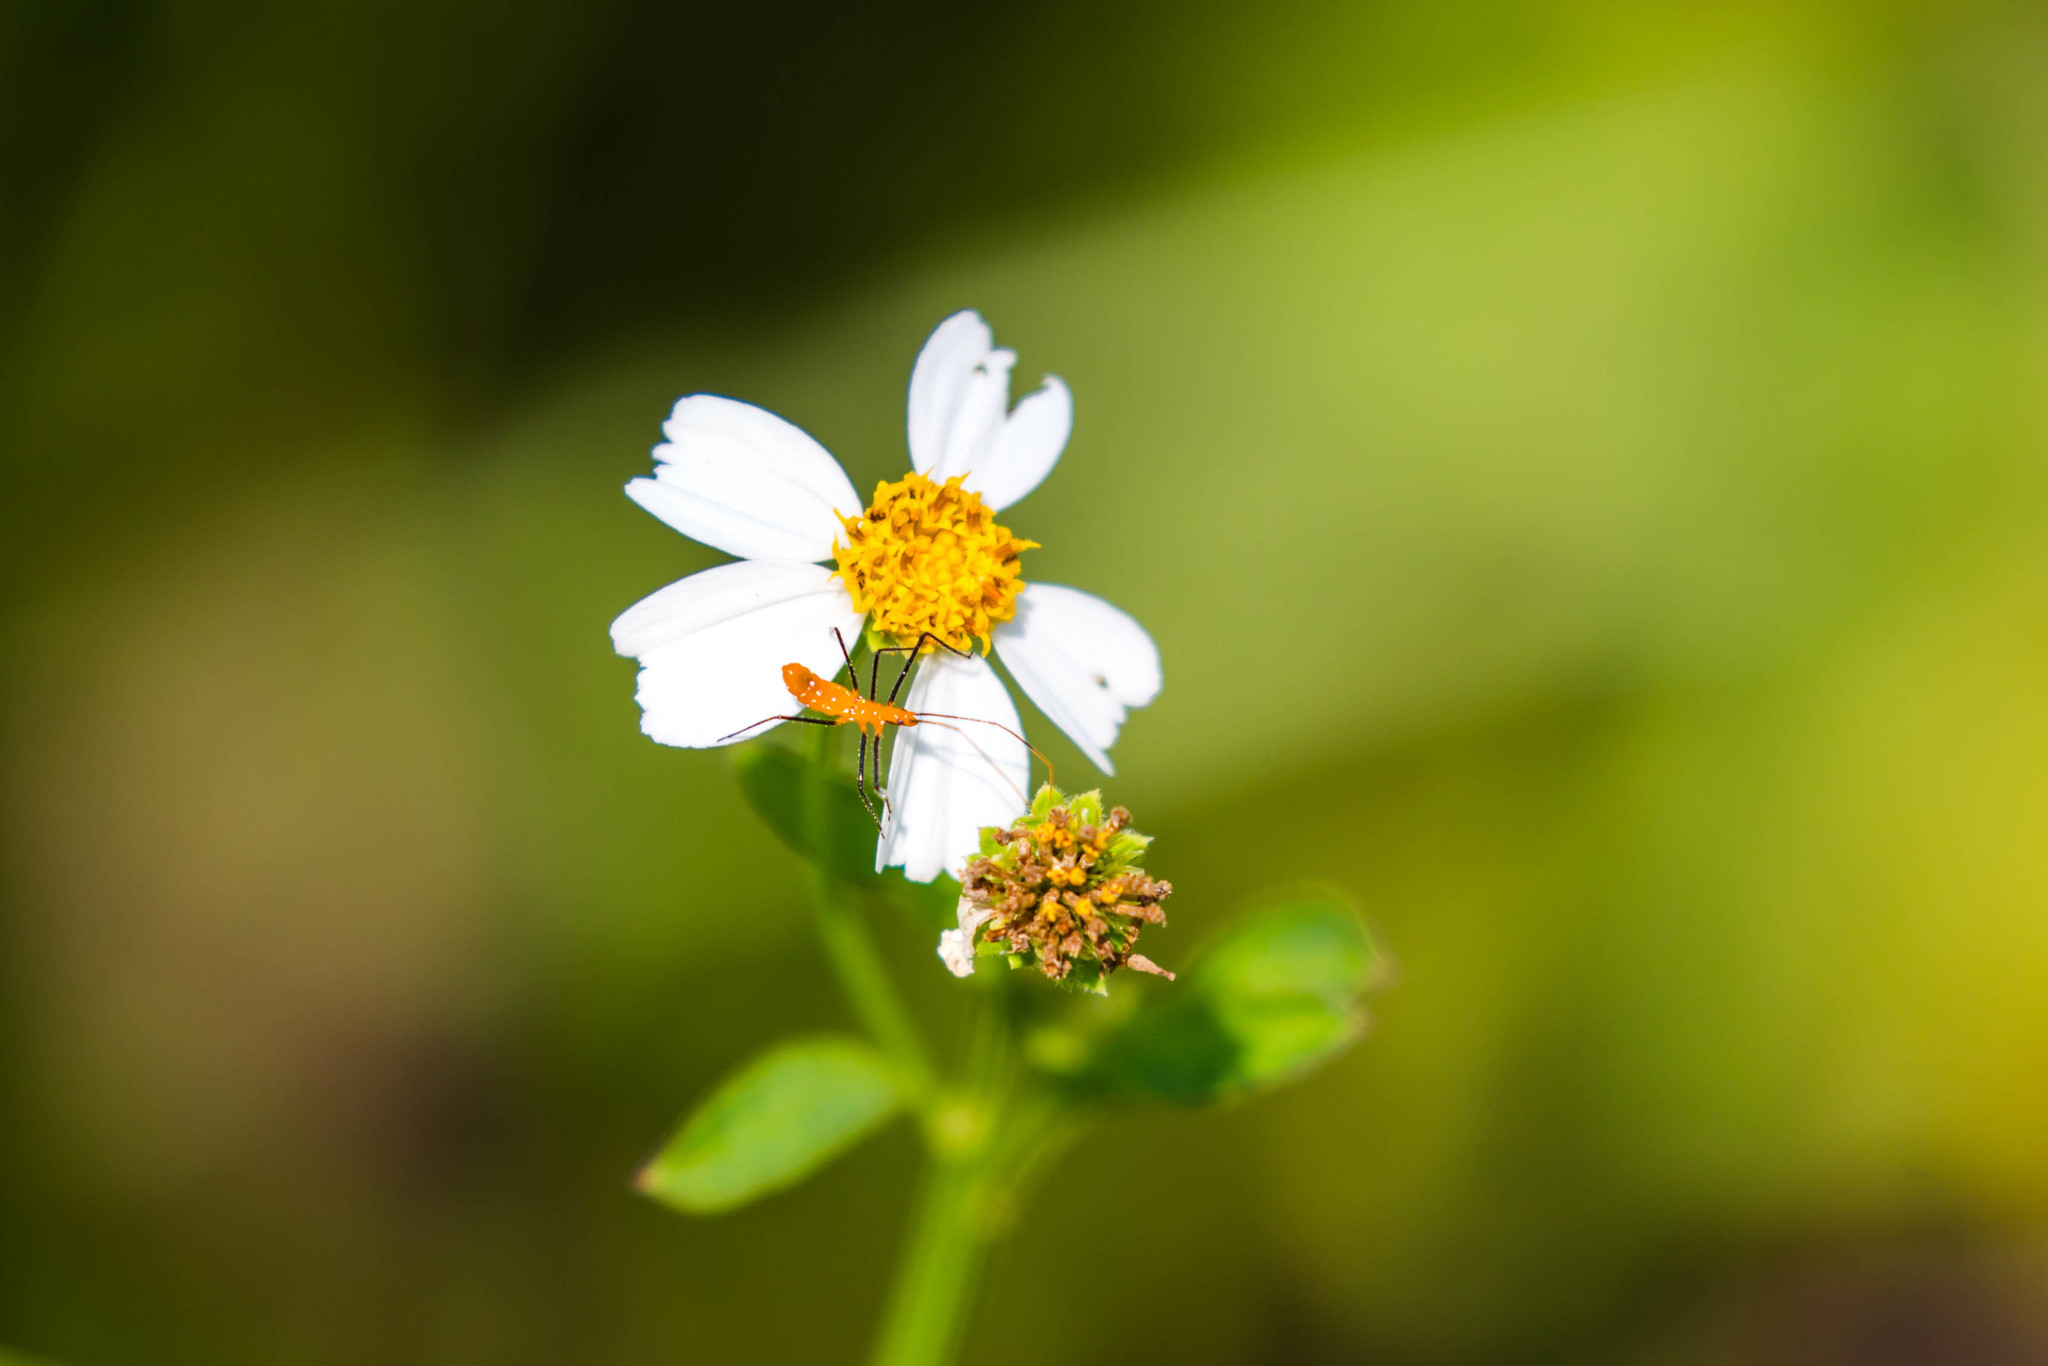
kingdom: Plantae
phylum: Tracheophyta
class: Magnoliopsida
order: Asterales
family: Asteraceae
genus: Bidens
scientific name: Bidens alba
